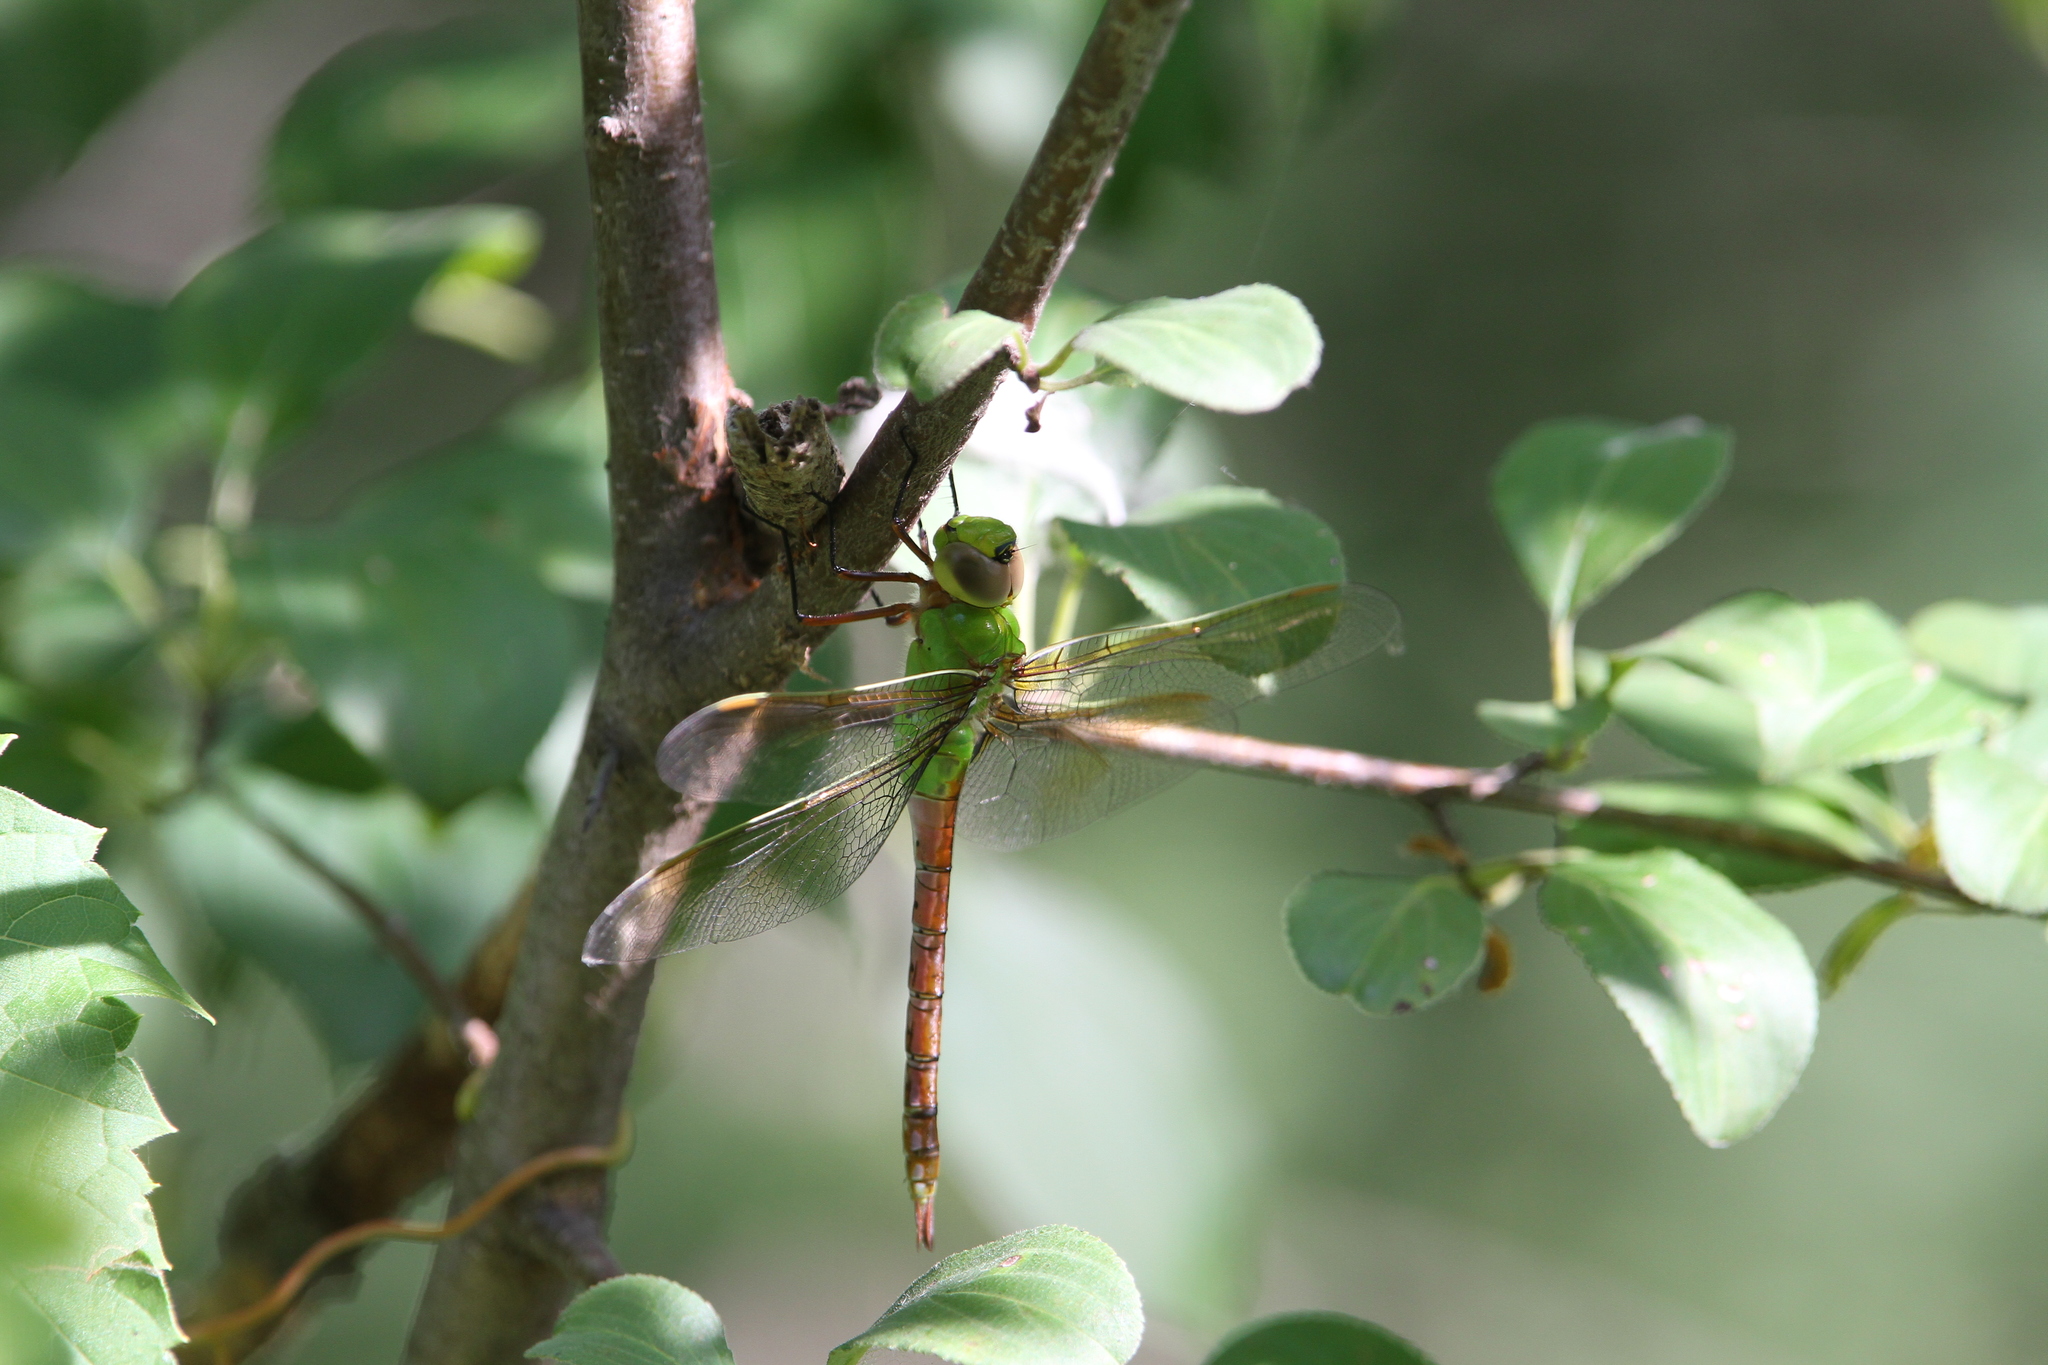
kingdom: Animalia
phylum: Arthropoda
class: Insecta
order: Odonata
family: Aeshnidae
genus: Anax
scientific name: Anax junius
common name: Common green darner
